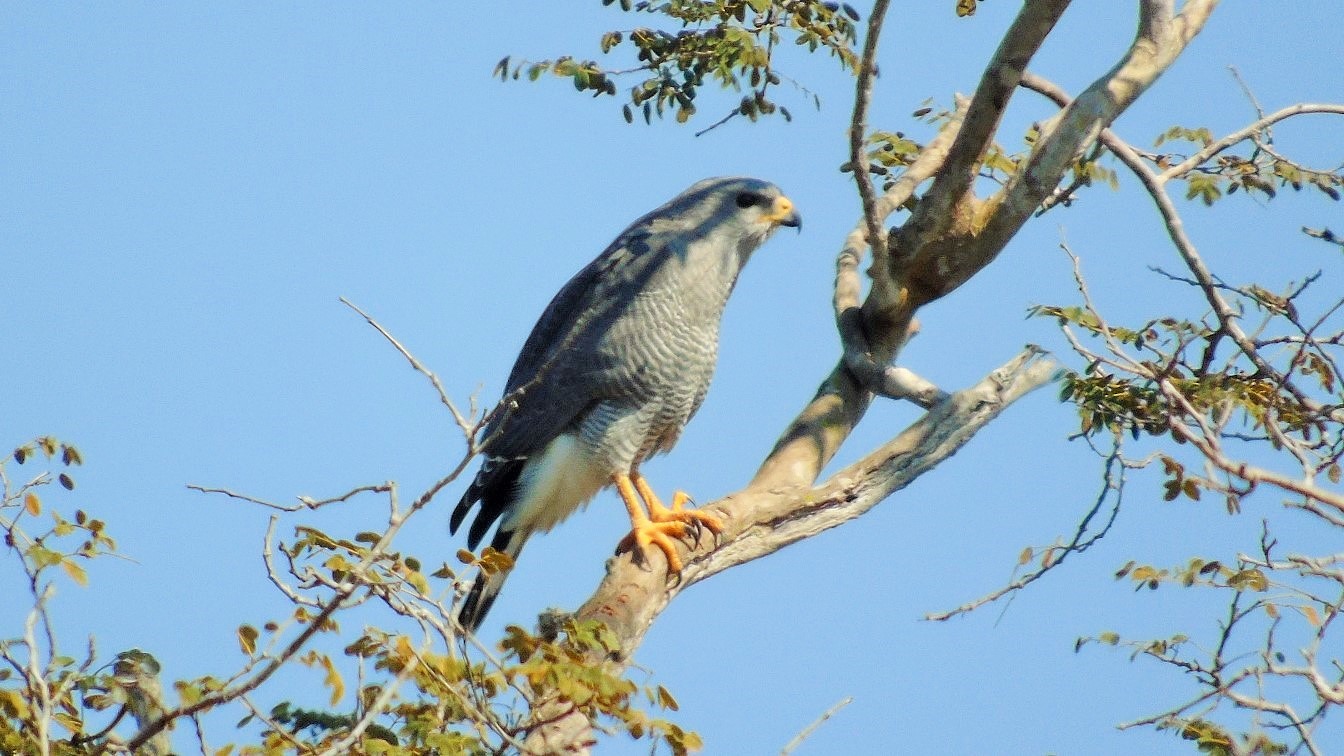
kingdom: Animalia
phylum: Chordata
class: Aves
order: Accipitriformes
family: Accipitridae
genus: Buteo
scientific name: Buteo nitidus
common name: Grey-lined hawk
